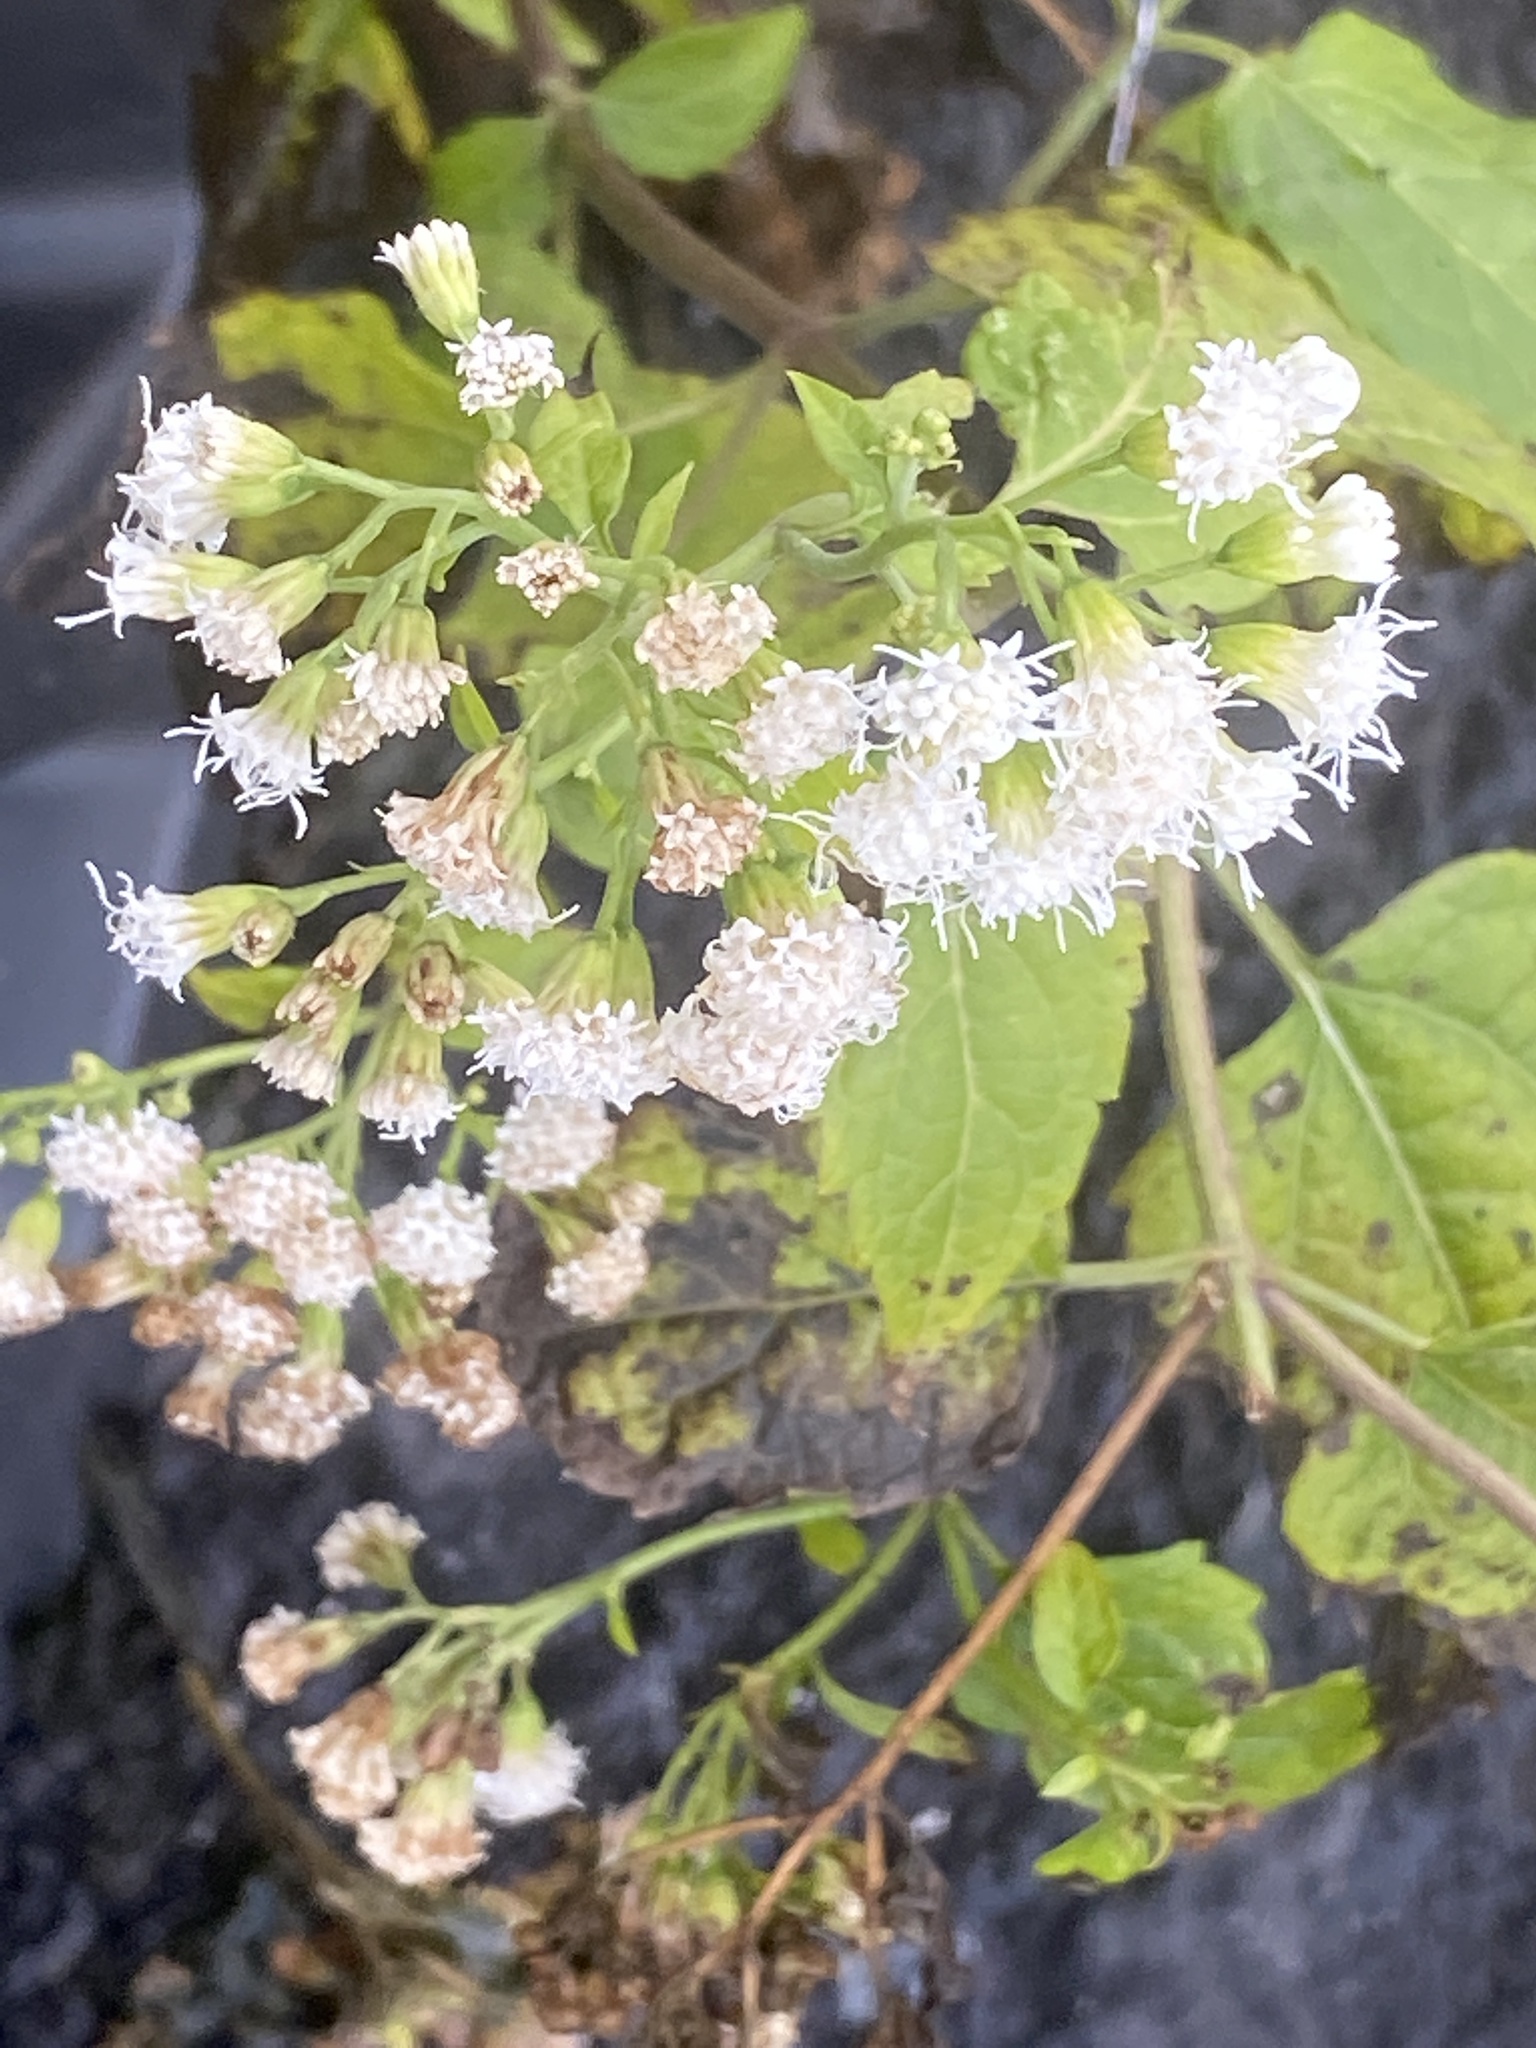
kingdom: Plantae
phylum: Tracheophyta
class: Magnoliopsida
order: Asterales
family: Asteraceae
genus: Ageratina
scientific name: Ageratina altissima
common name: White snakeroot
